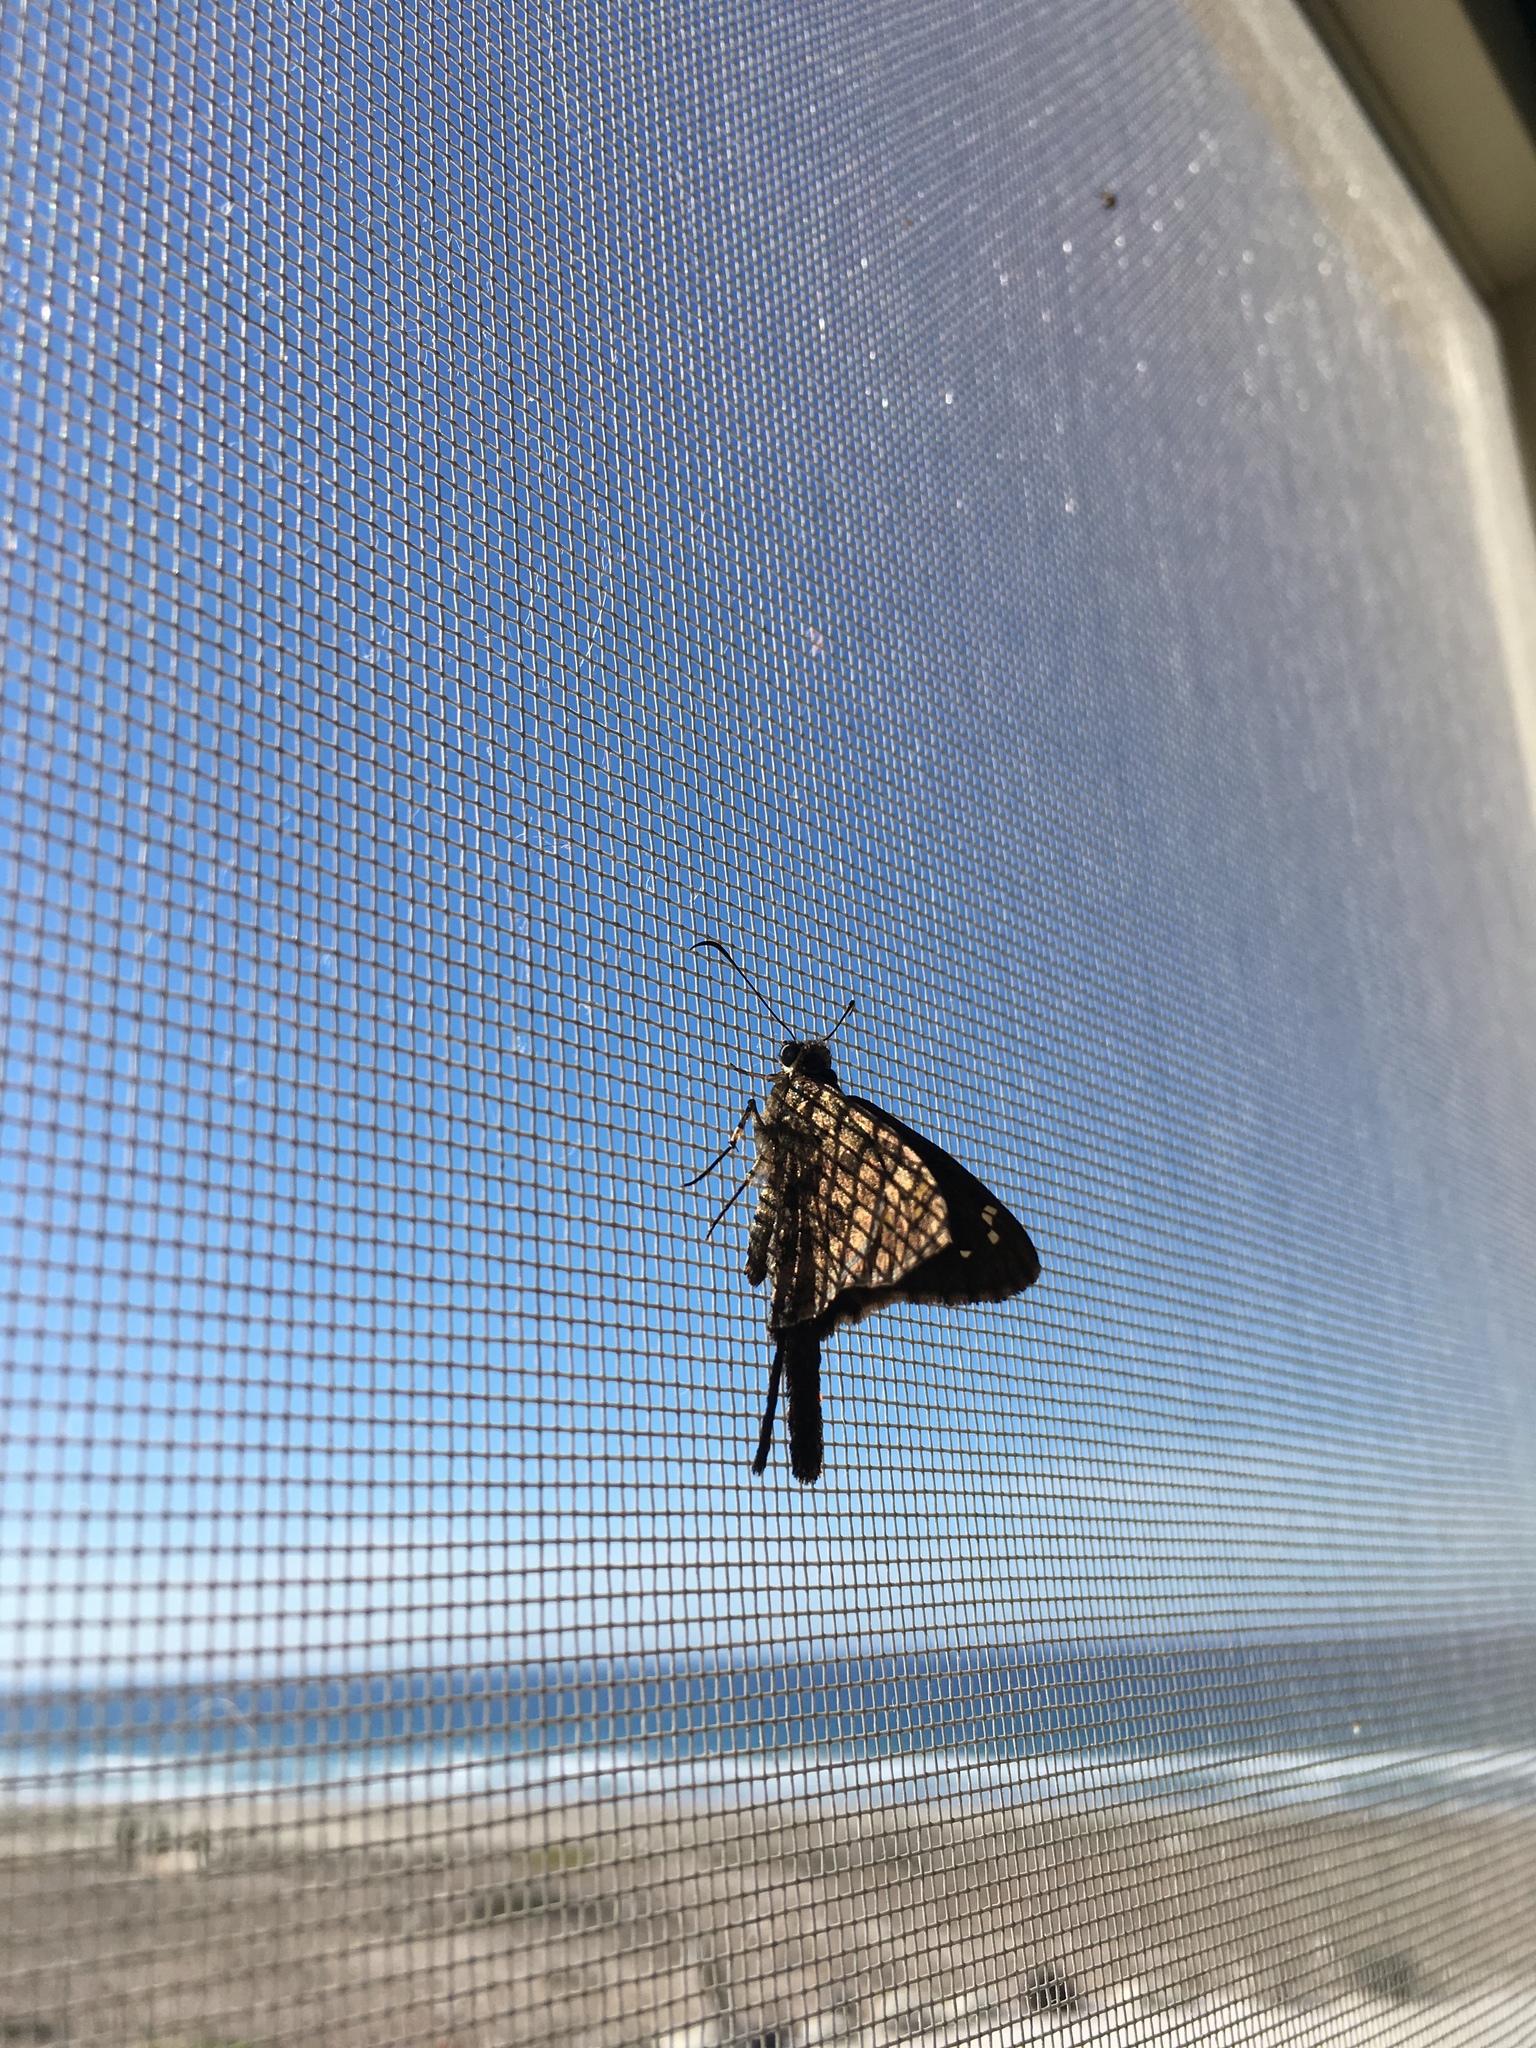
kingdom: Animalia
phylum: Arthropoda
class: Insecta
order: Lepidoptera
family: Hesperiidae
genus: Thorybes
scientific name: Thorybes
